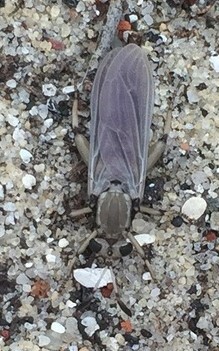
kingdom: Animalia
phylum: Arthropoda
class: Insecta
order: Diptera
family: Mydidae
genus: Phyllomydas
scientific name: Phyllomydas parvulus
